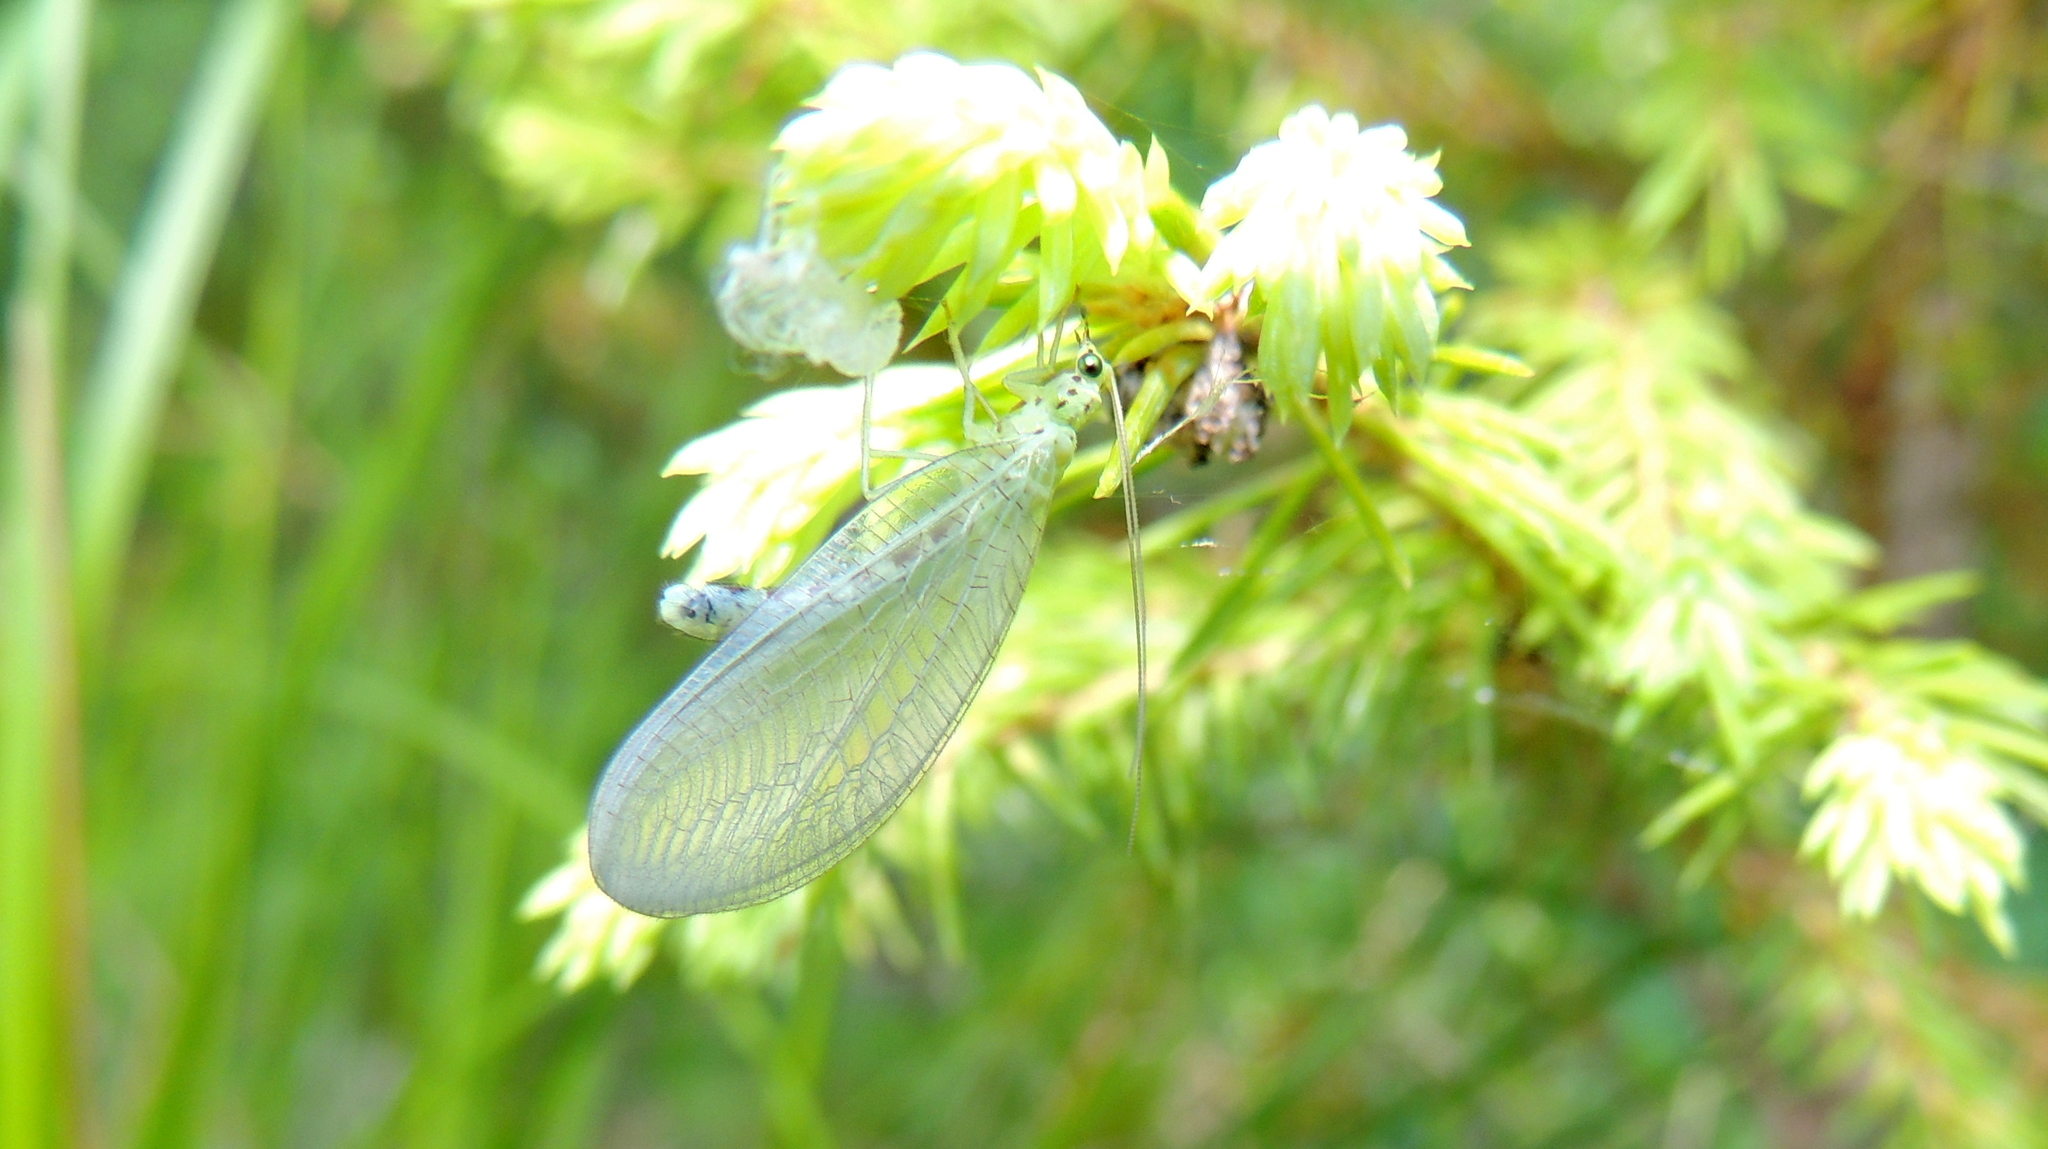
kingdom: Animalia
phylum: Arthropoda
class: Insecta
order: Neuroptera
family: Chrysopidae
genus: Pseudomallada
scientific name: Pseudomallada ventralis
